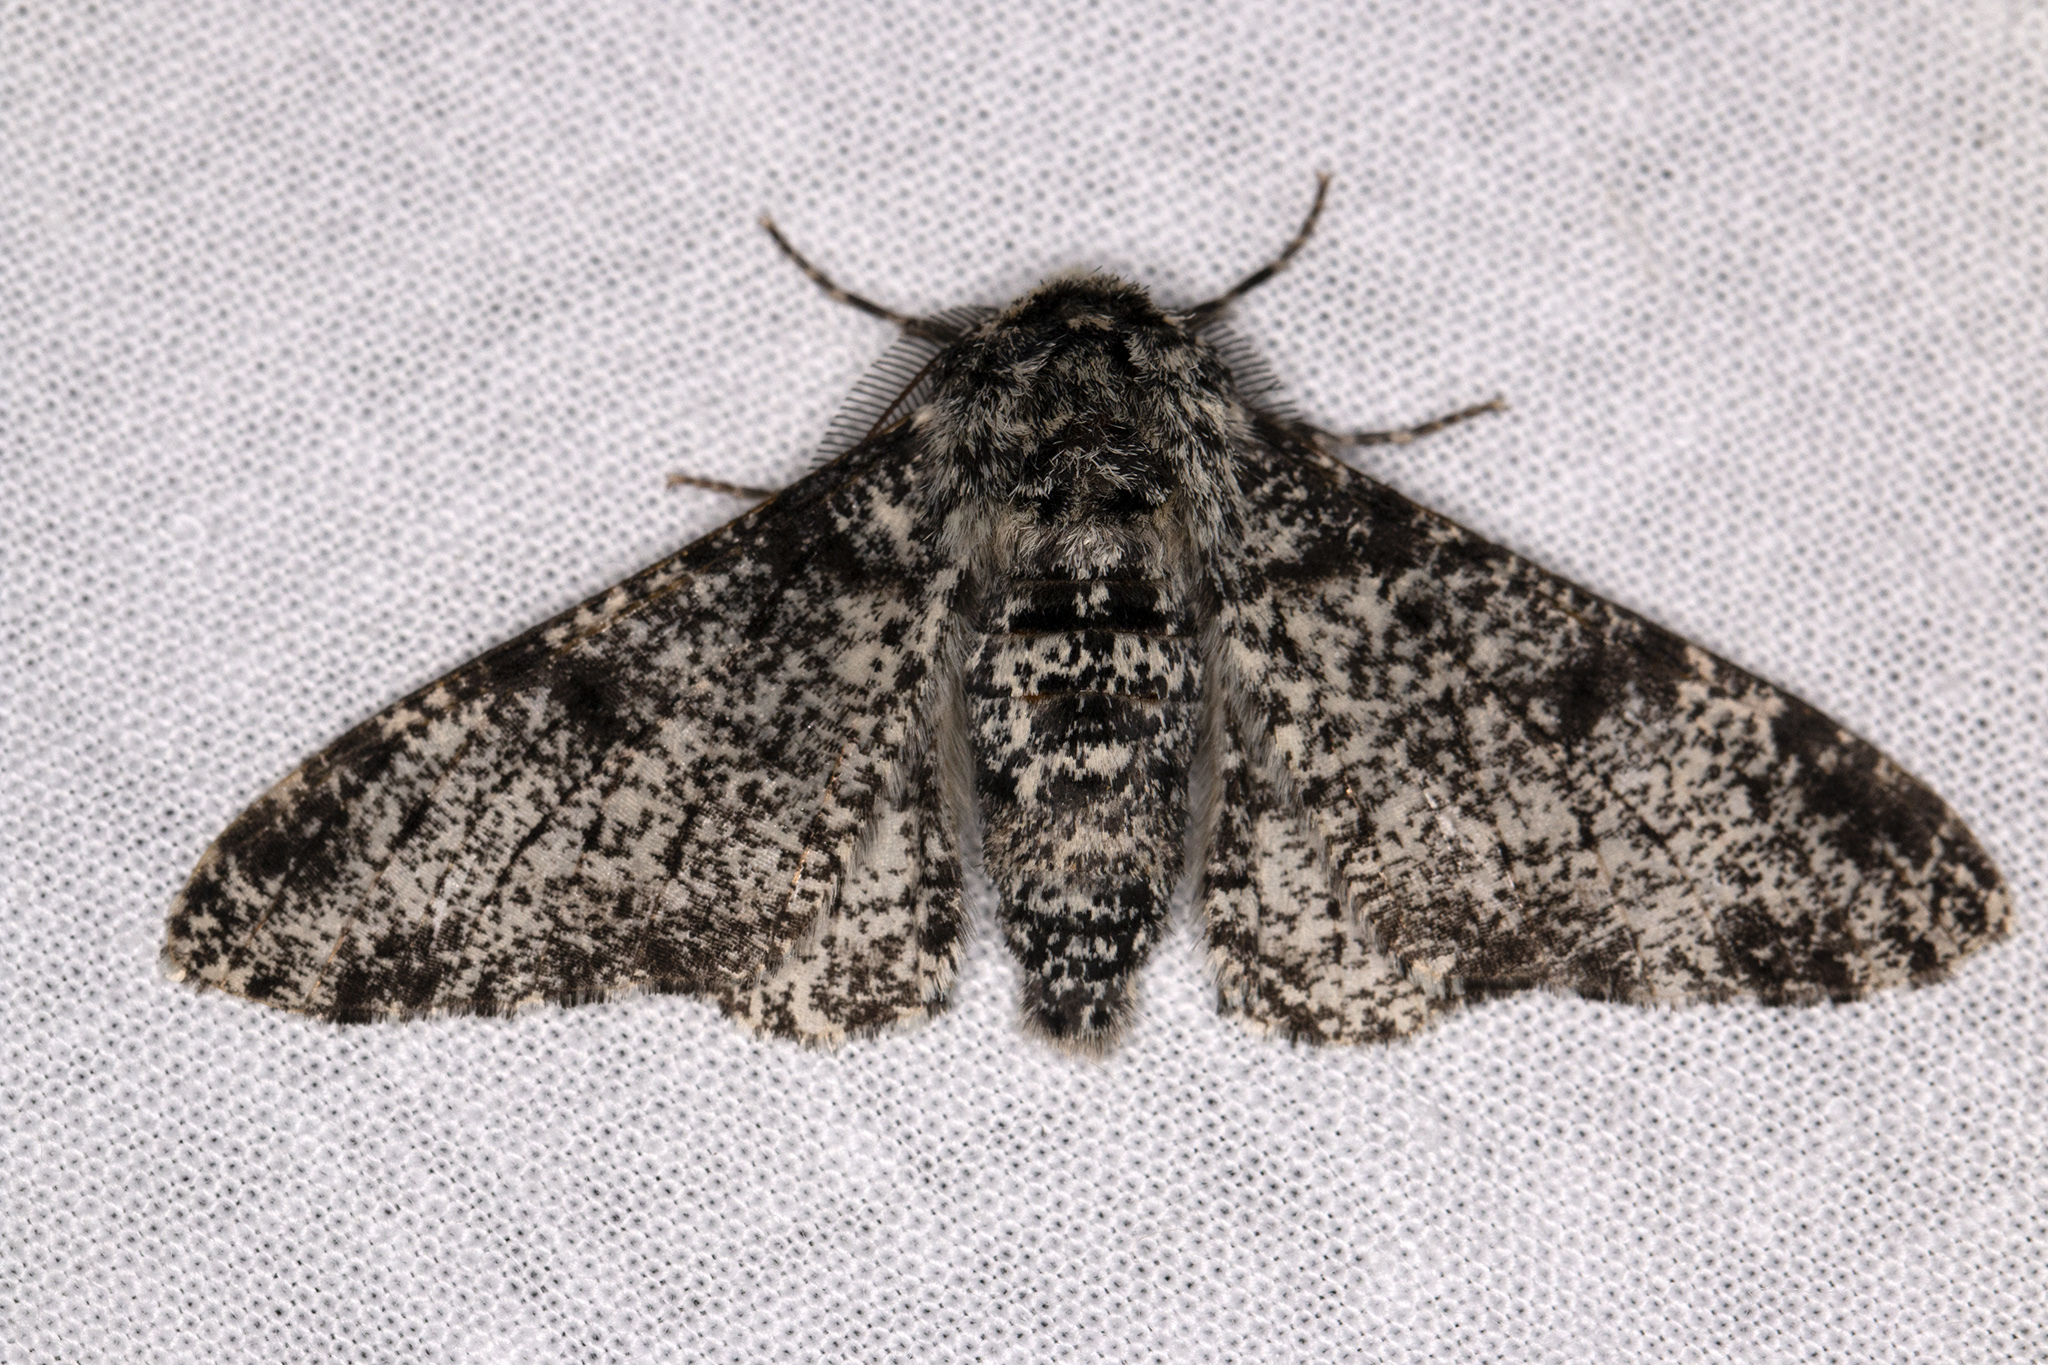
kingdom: Animalia
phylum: Arthropoda
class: Insecta
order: Lepidoptera
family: Geometridae
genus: Biston
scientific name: Biston betularia
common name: Peppered moth
